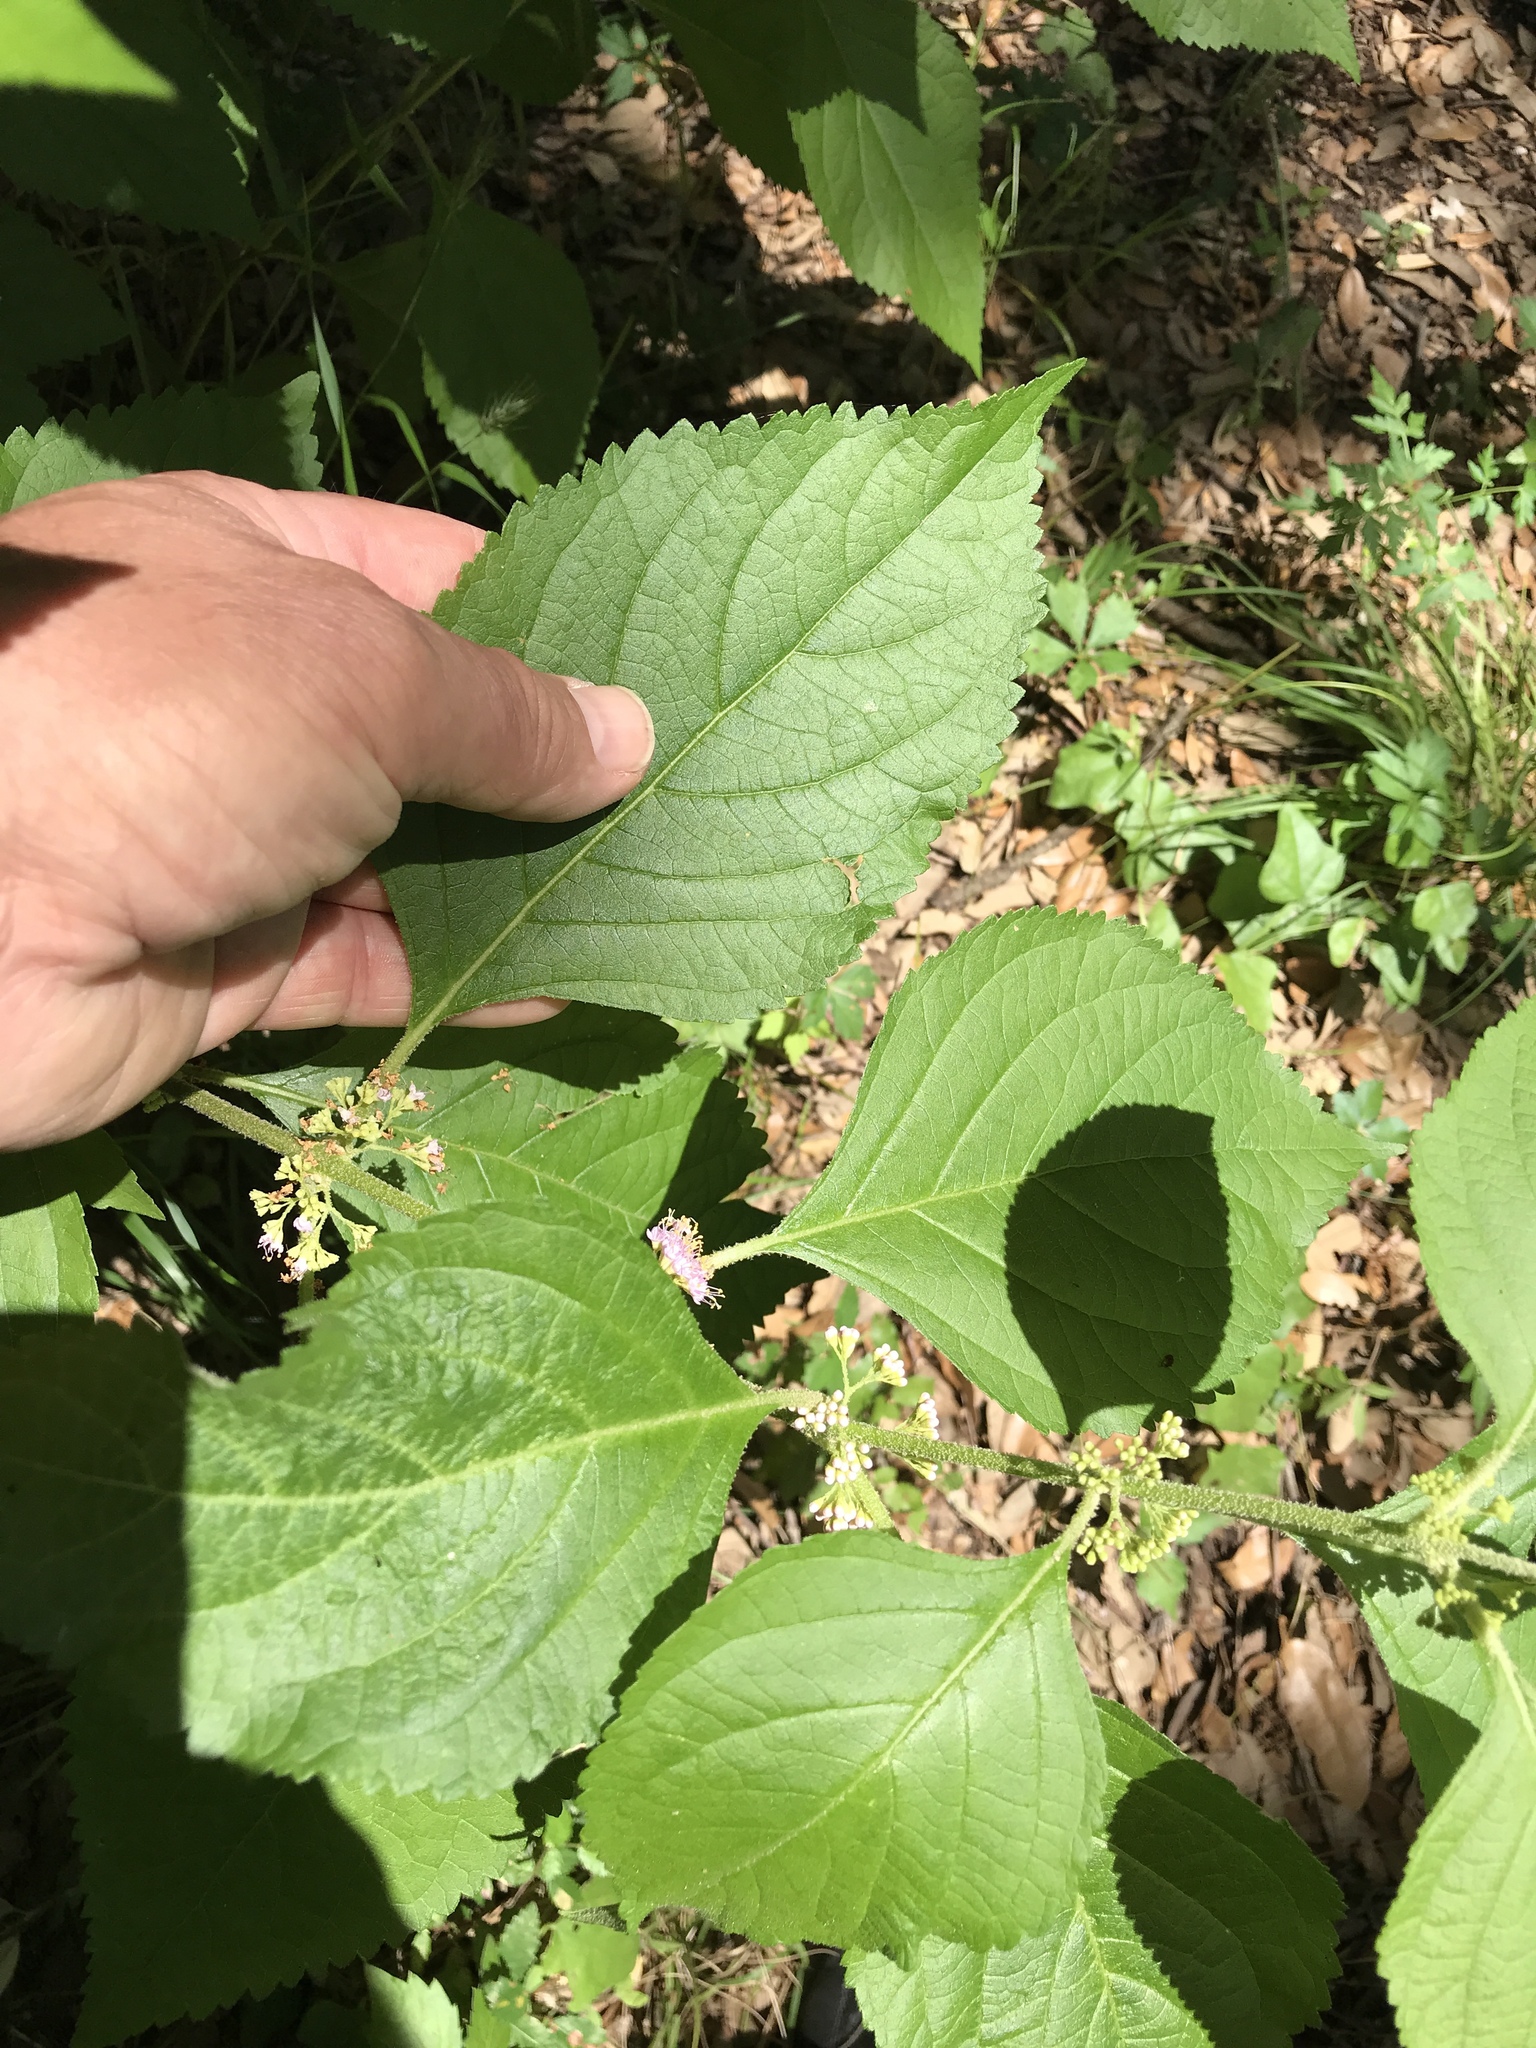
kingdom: Plantae
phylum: Tracheophyta
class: Magnoliopsida
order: Lamiales
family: Lamiaceae
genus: Callicarpa
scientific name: Callicarpa americana
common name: American beautyberry
